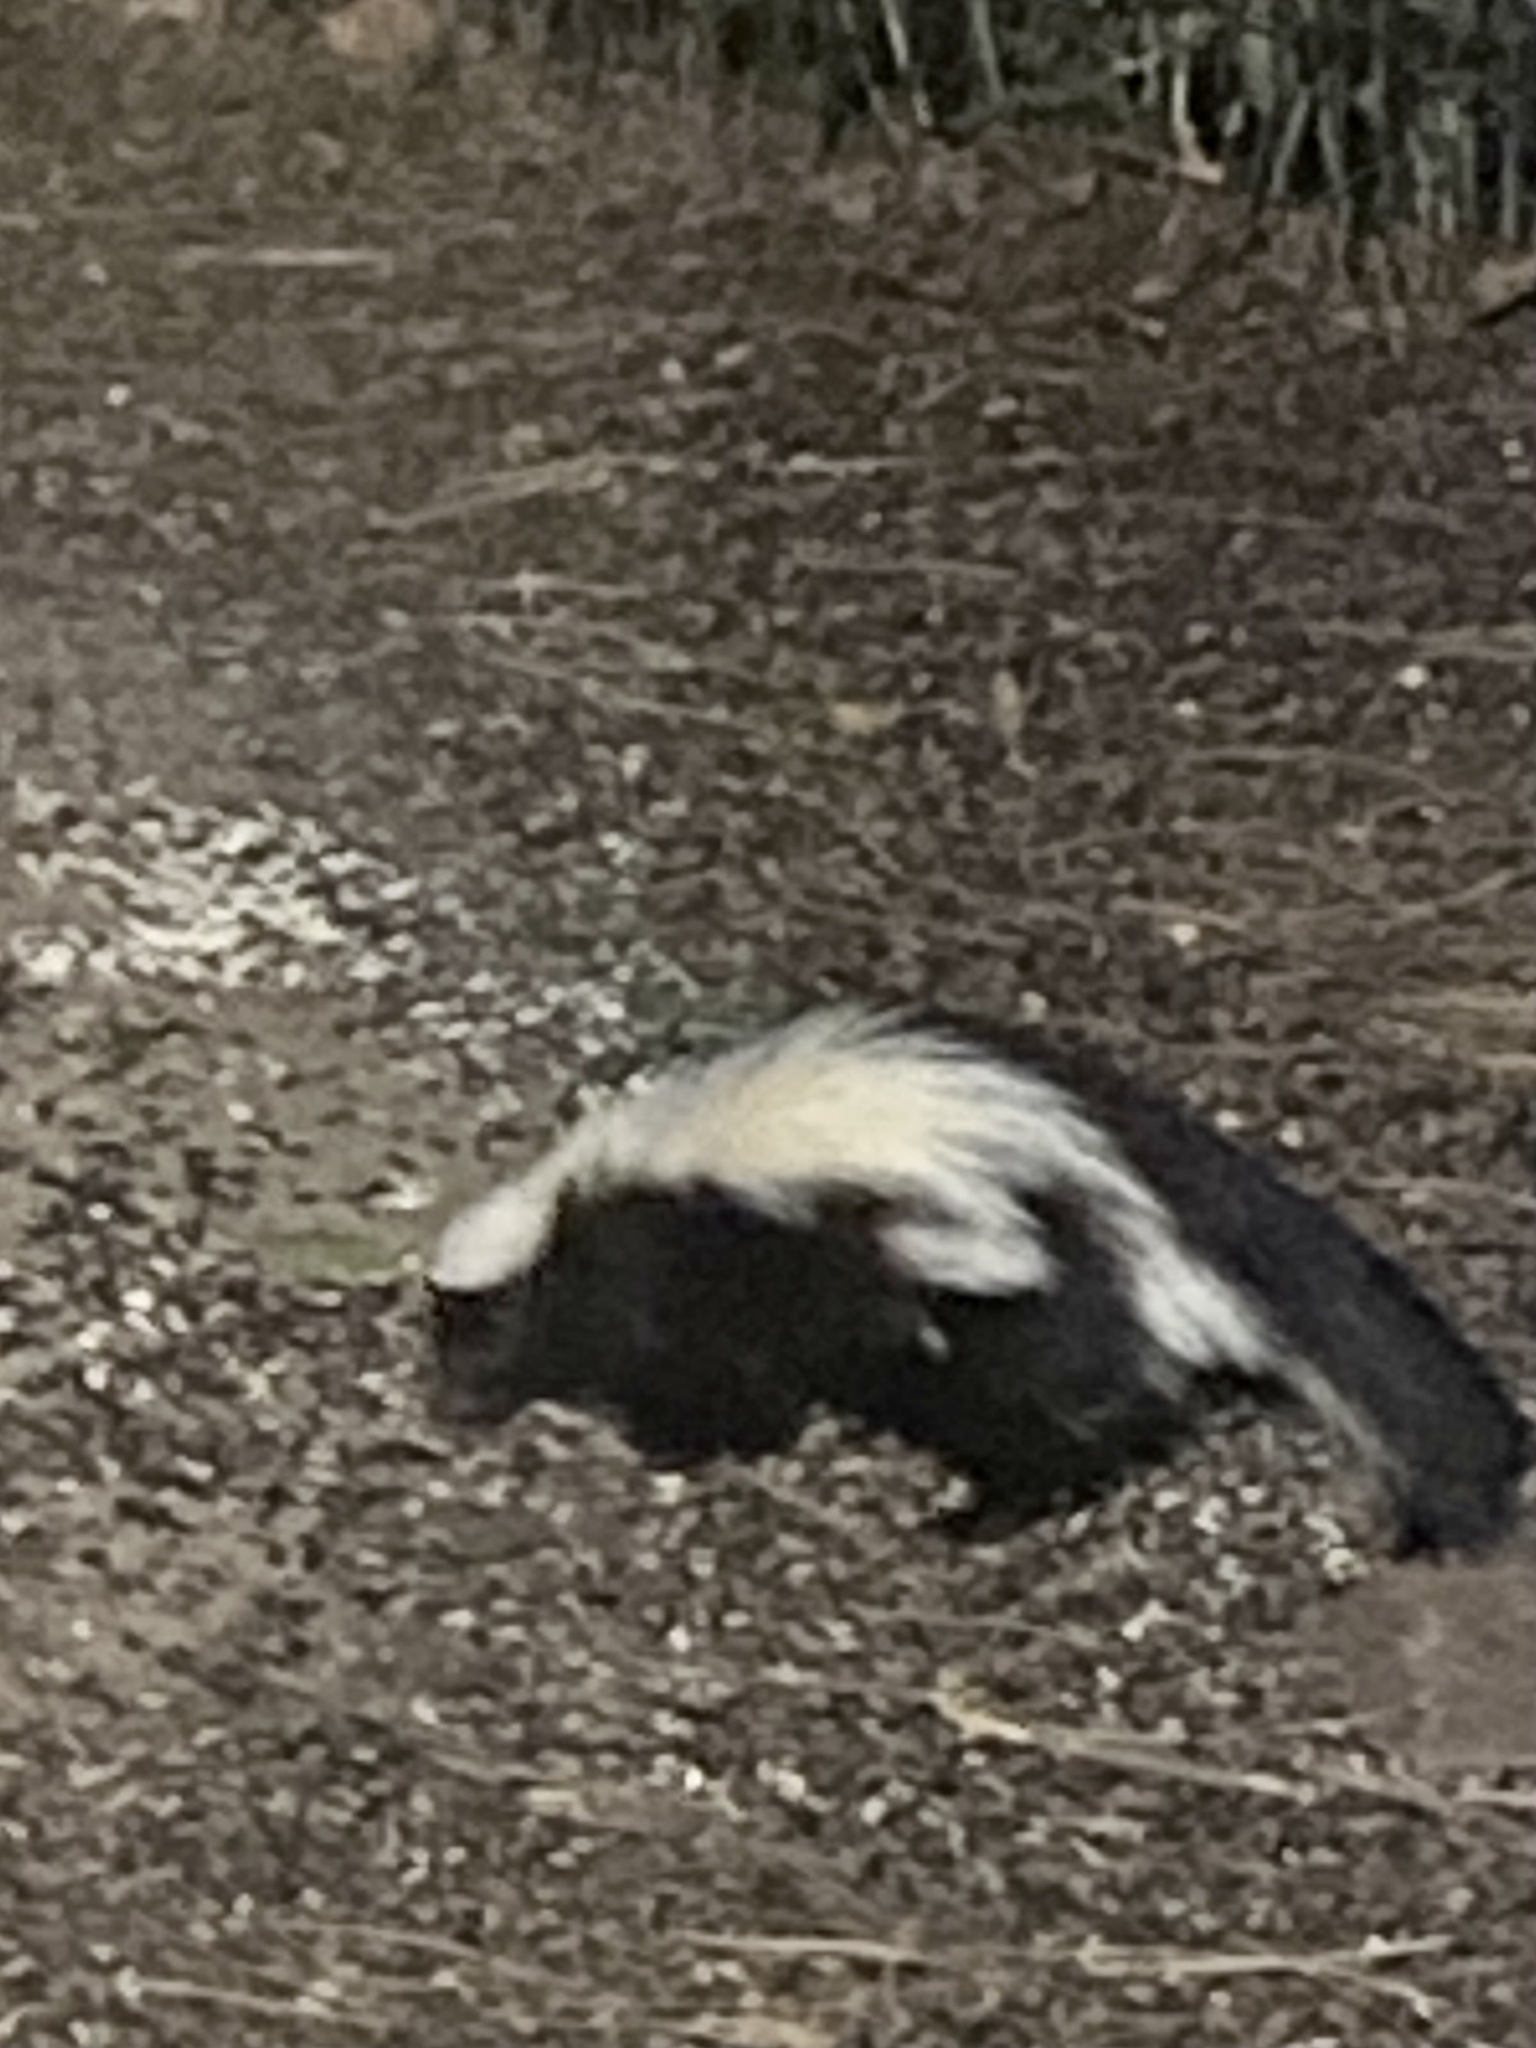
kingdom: Animalia
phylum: Chordata
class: Mammalia
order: Carnivora
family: Mephitidae
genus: Mephitis
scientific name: Mephitis mephitis
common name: Striped skunk
